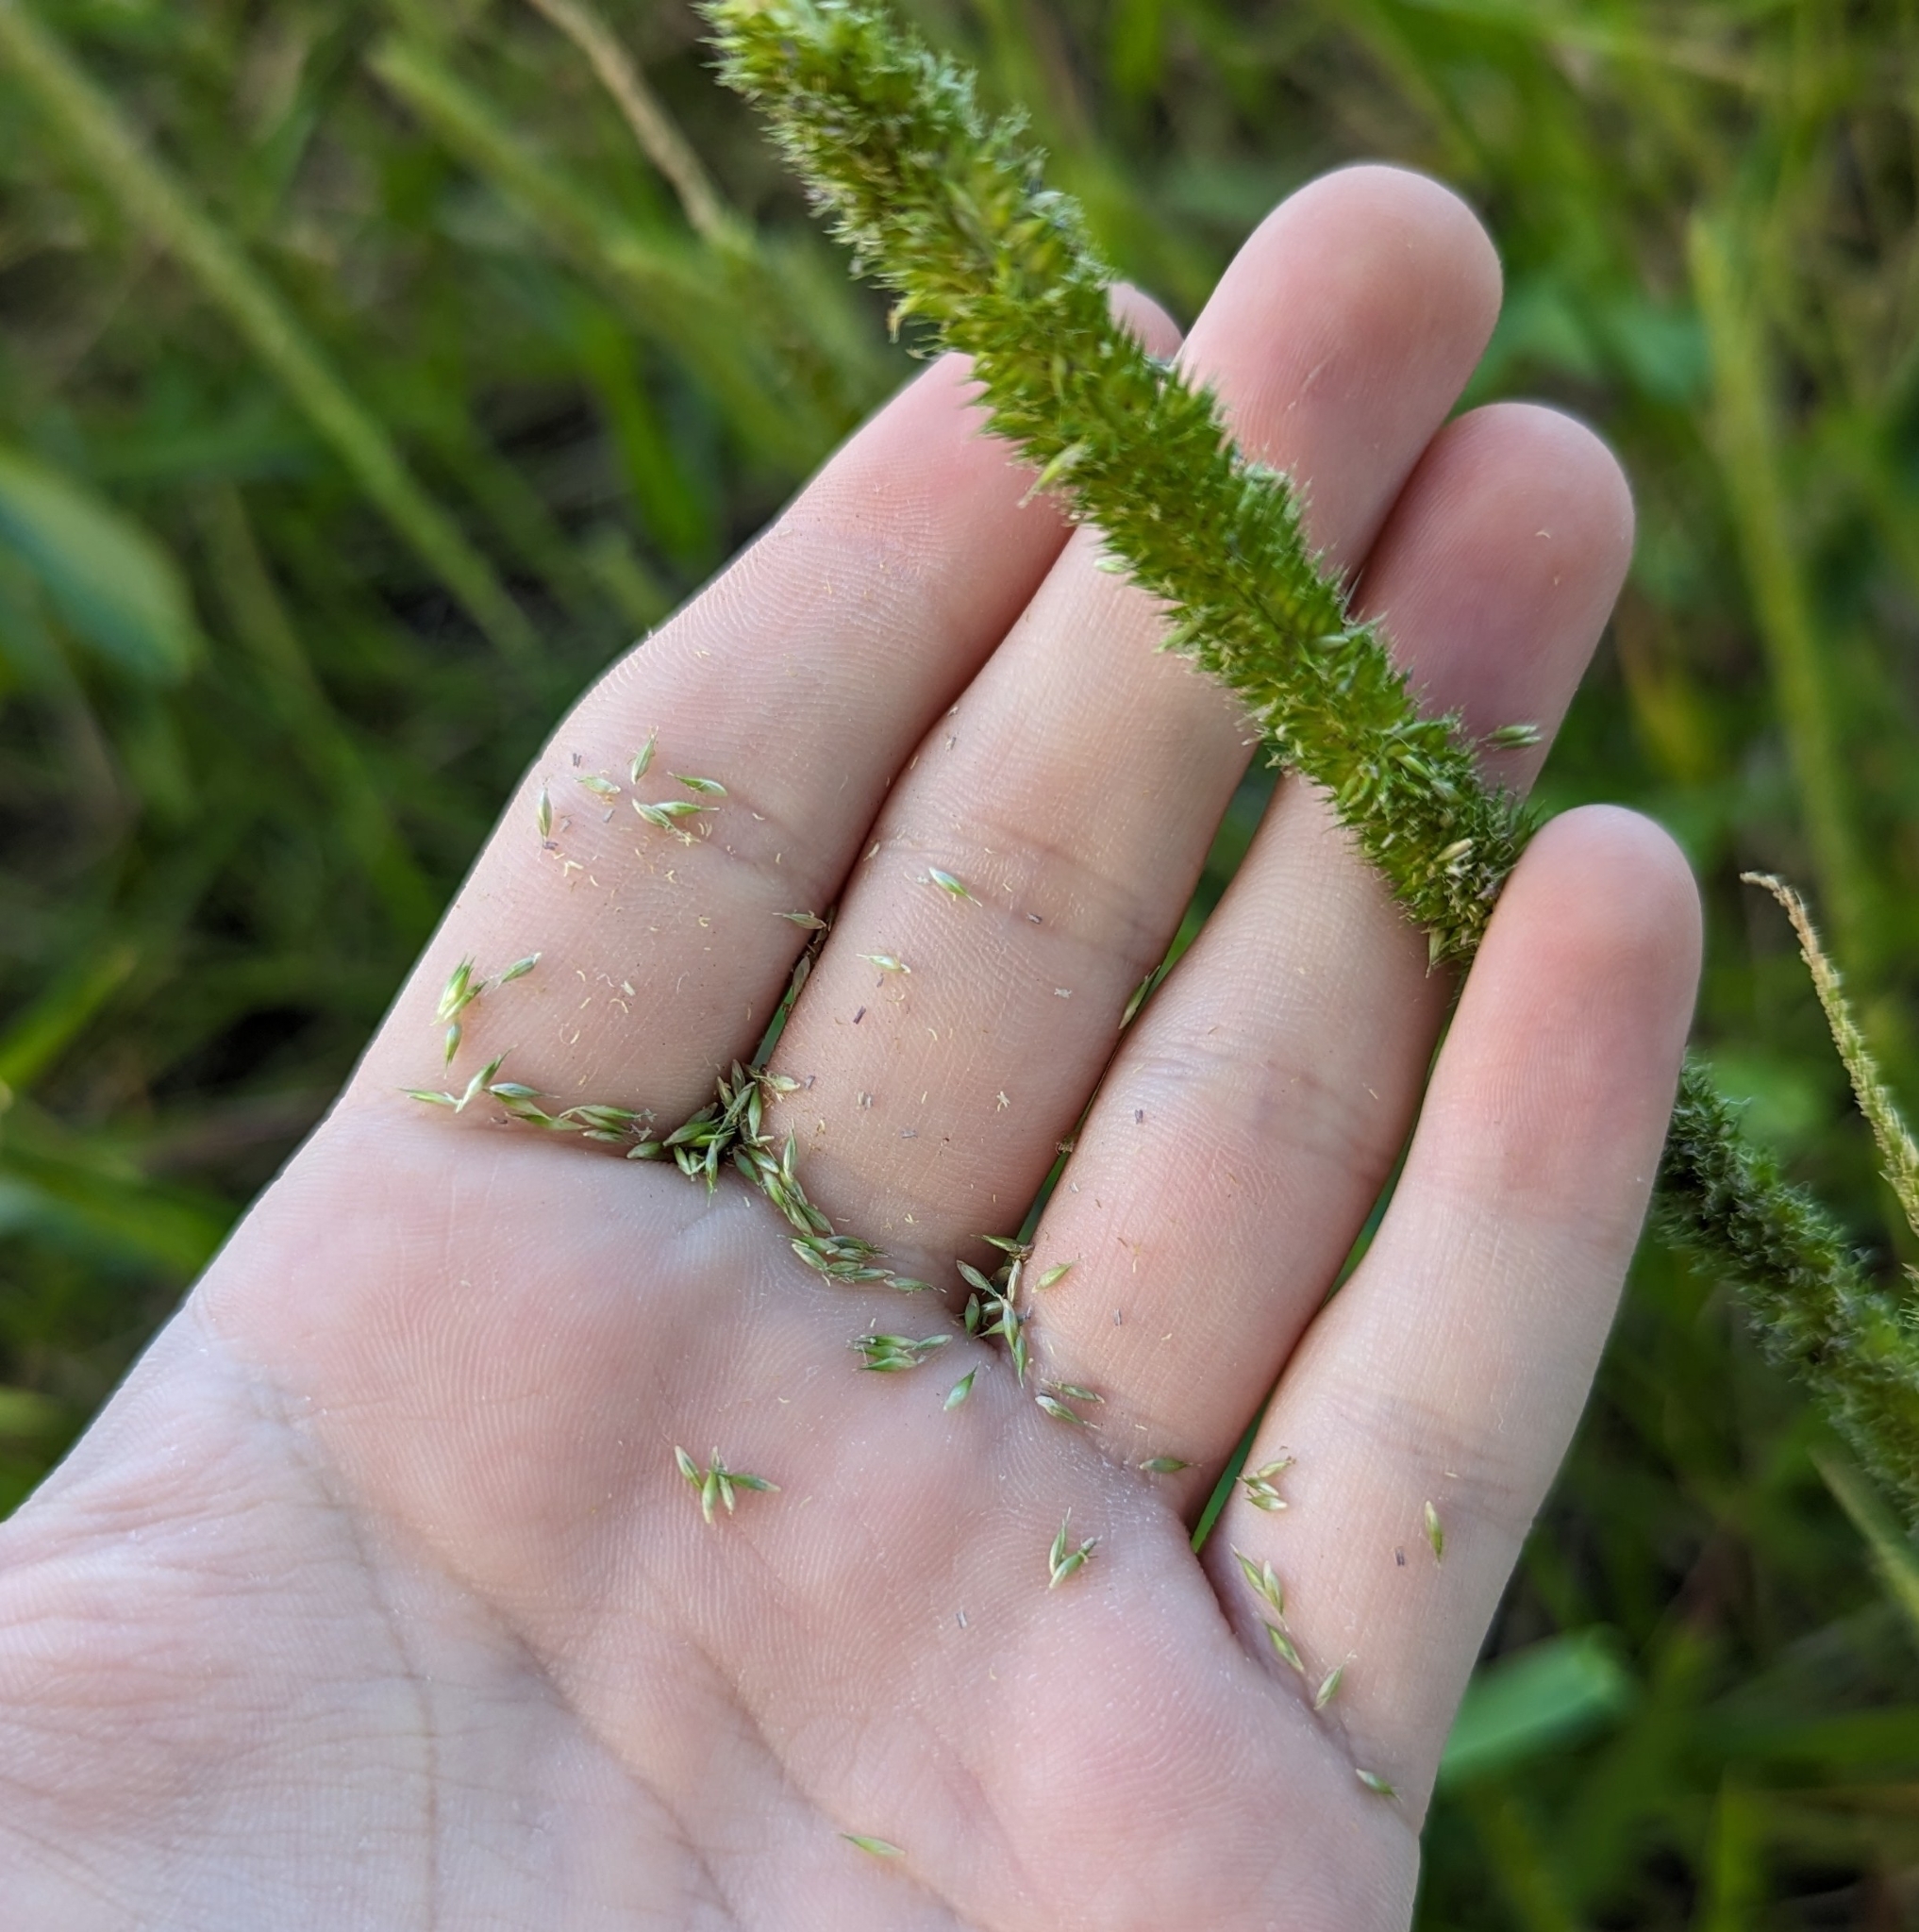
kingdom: Plantae
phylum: Tracheophyta
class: Liliopsida
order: Poales
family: Poaceae
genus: Hymenachne
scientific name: Hymenachne amplexicaulis
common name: Olive hymenachne
